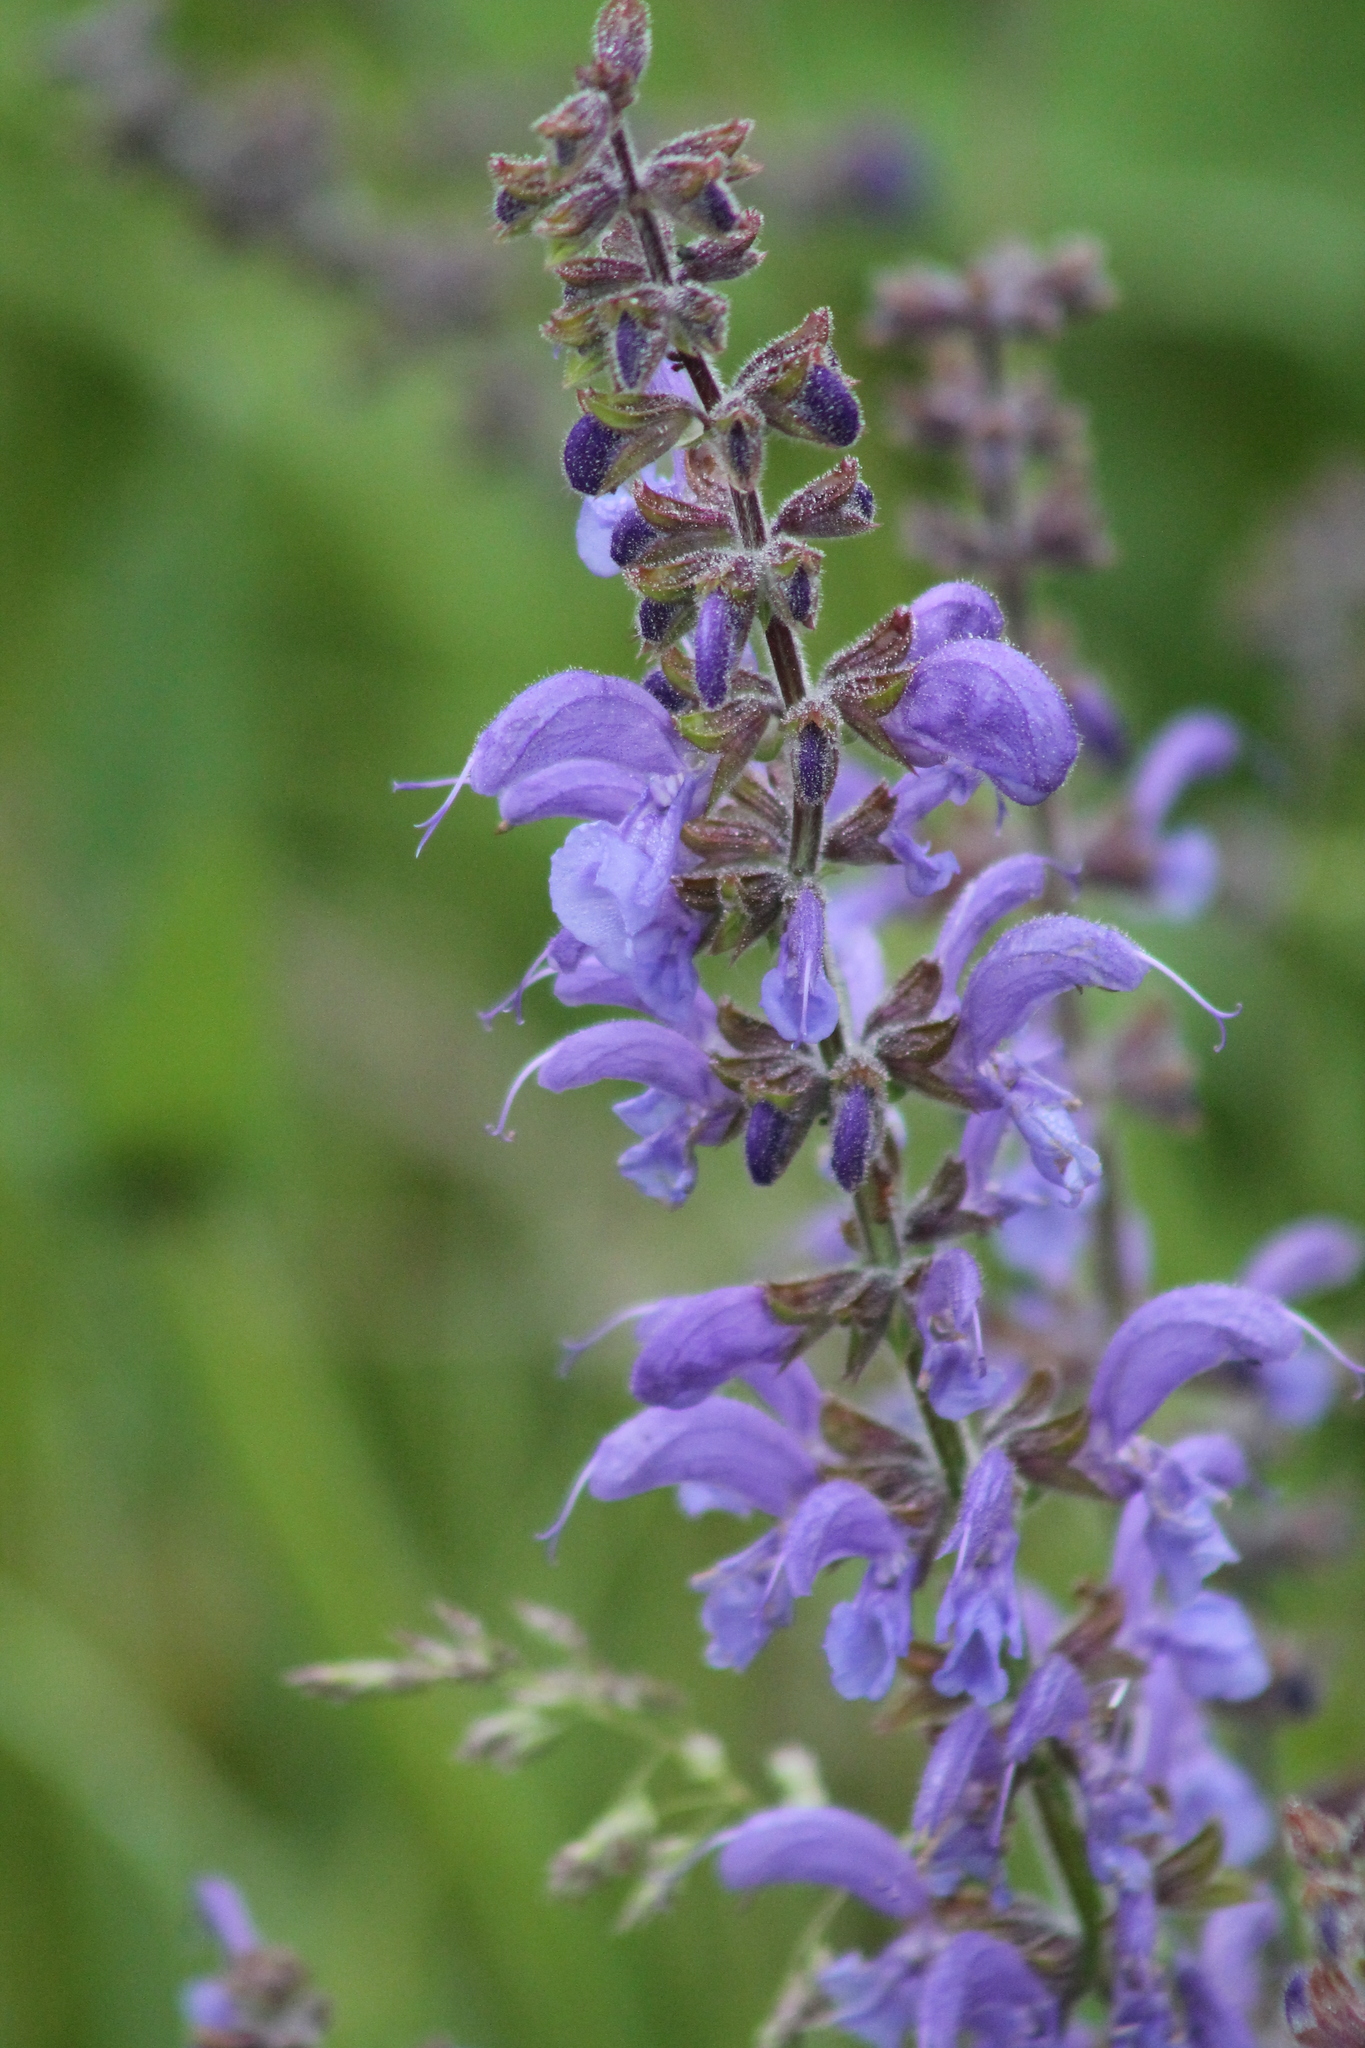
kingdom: Plantae
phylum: Tracheophyta
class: Magnoliopsida
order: Lamiales
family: Lamiaceae
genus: Salvia
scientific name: Salvia pratensis
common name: Meadow sage
